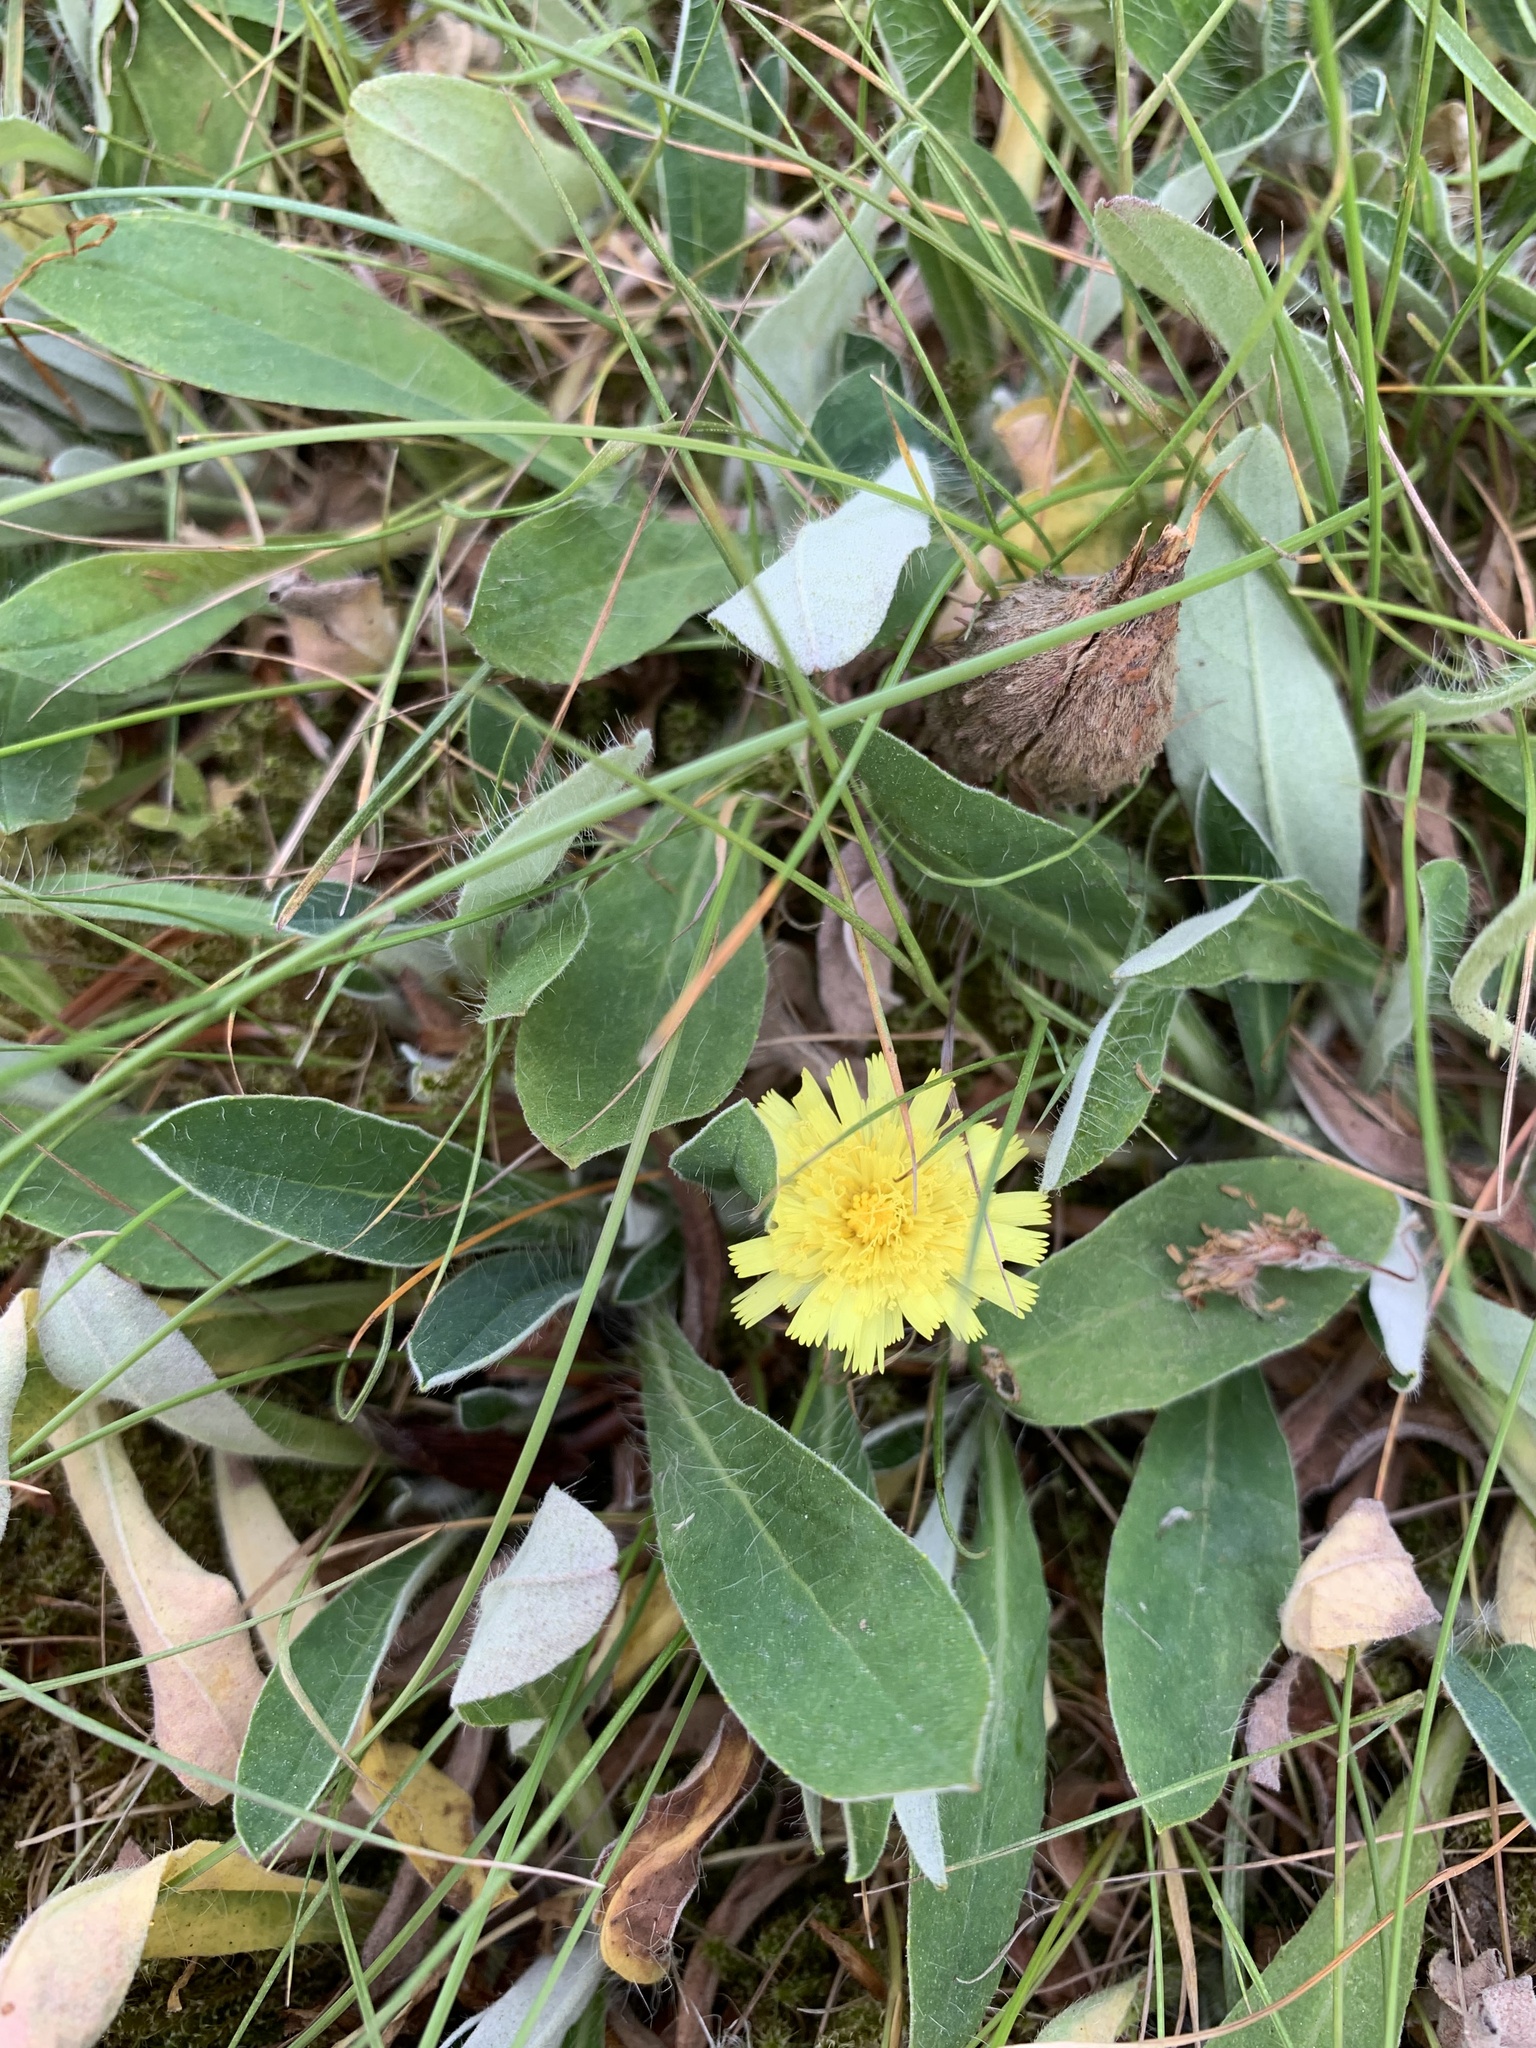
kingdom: Plantae
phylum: Tracheophyta
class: Magnoliopsida
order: Asterales
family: Asteraceae
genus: Pilosella
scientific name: Pilosella officinarum
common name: Mouse-ear hawkweed
